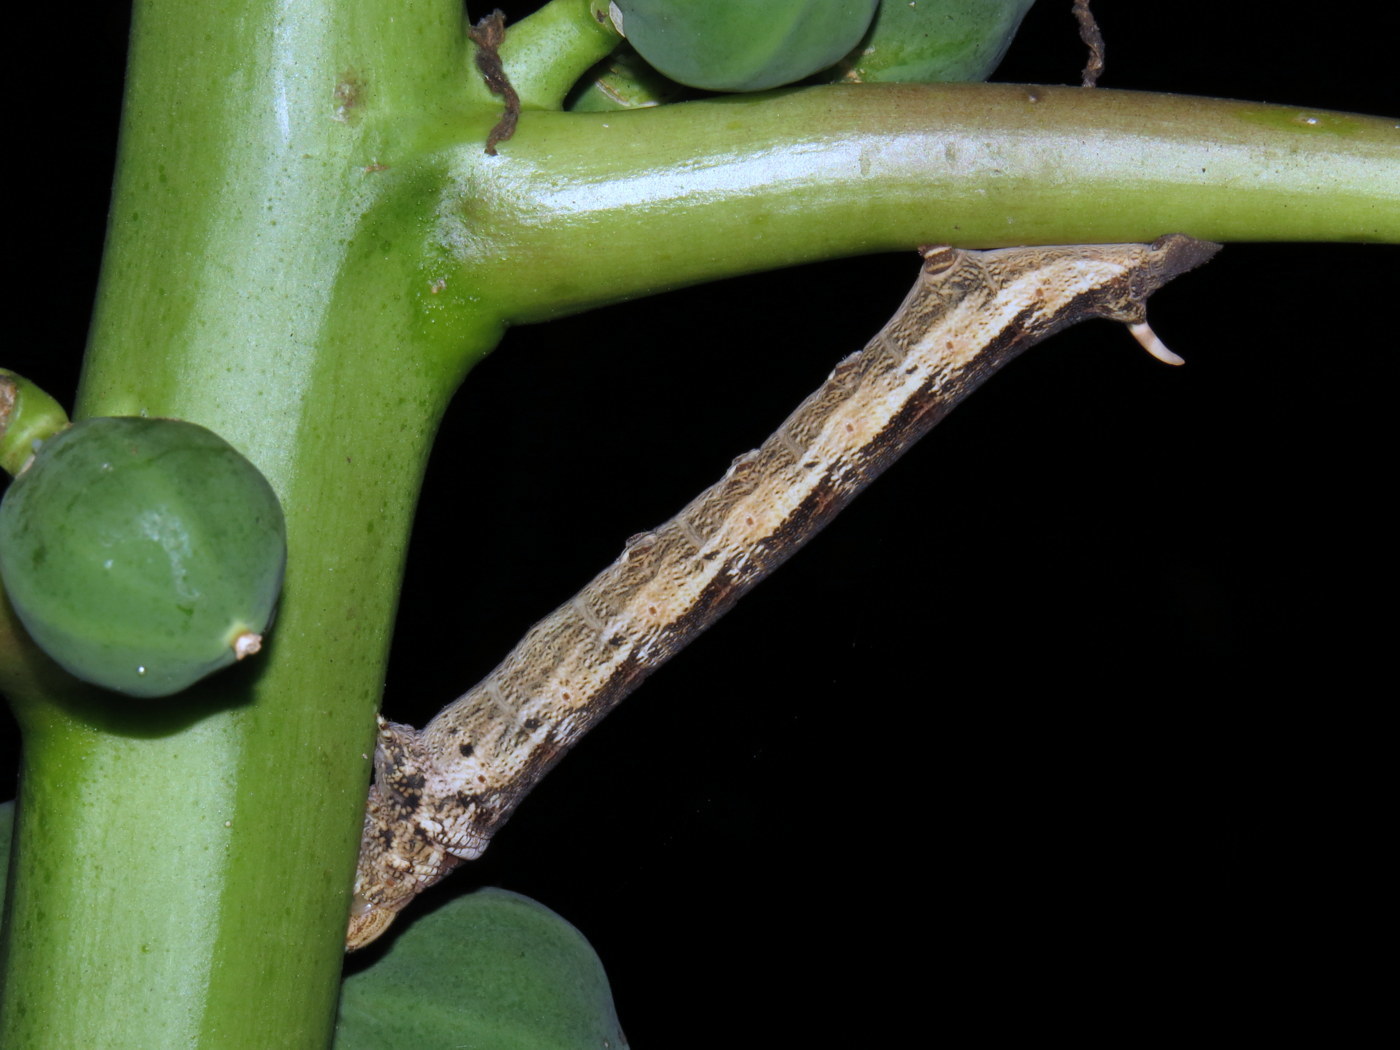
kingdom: Animalia
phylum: Arthropoda
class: Insecta
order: Lepidoptera
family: Sphingidae
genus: Erinnyis
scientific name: Erinnyis alope
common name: Alope sphinx
